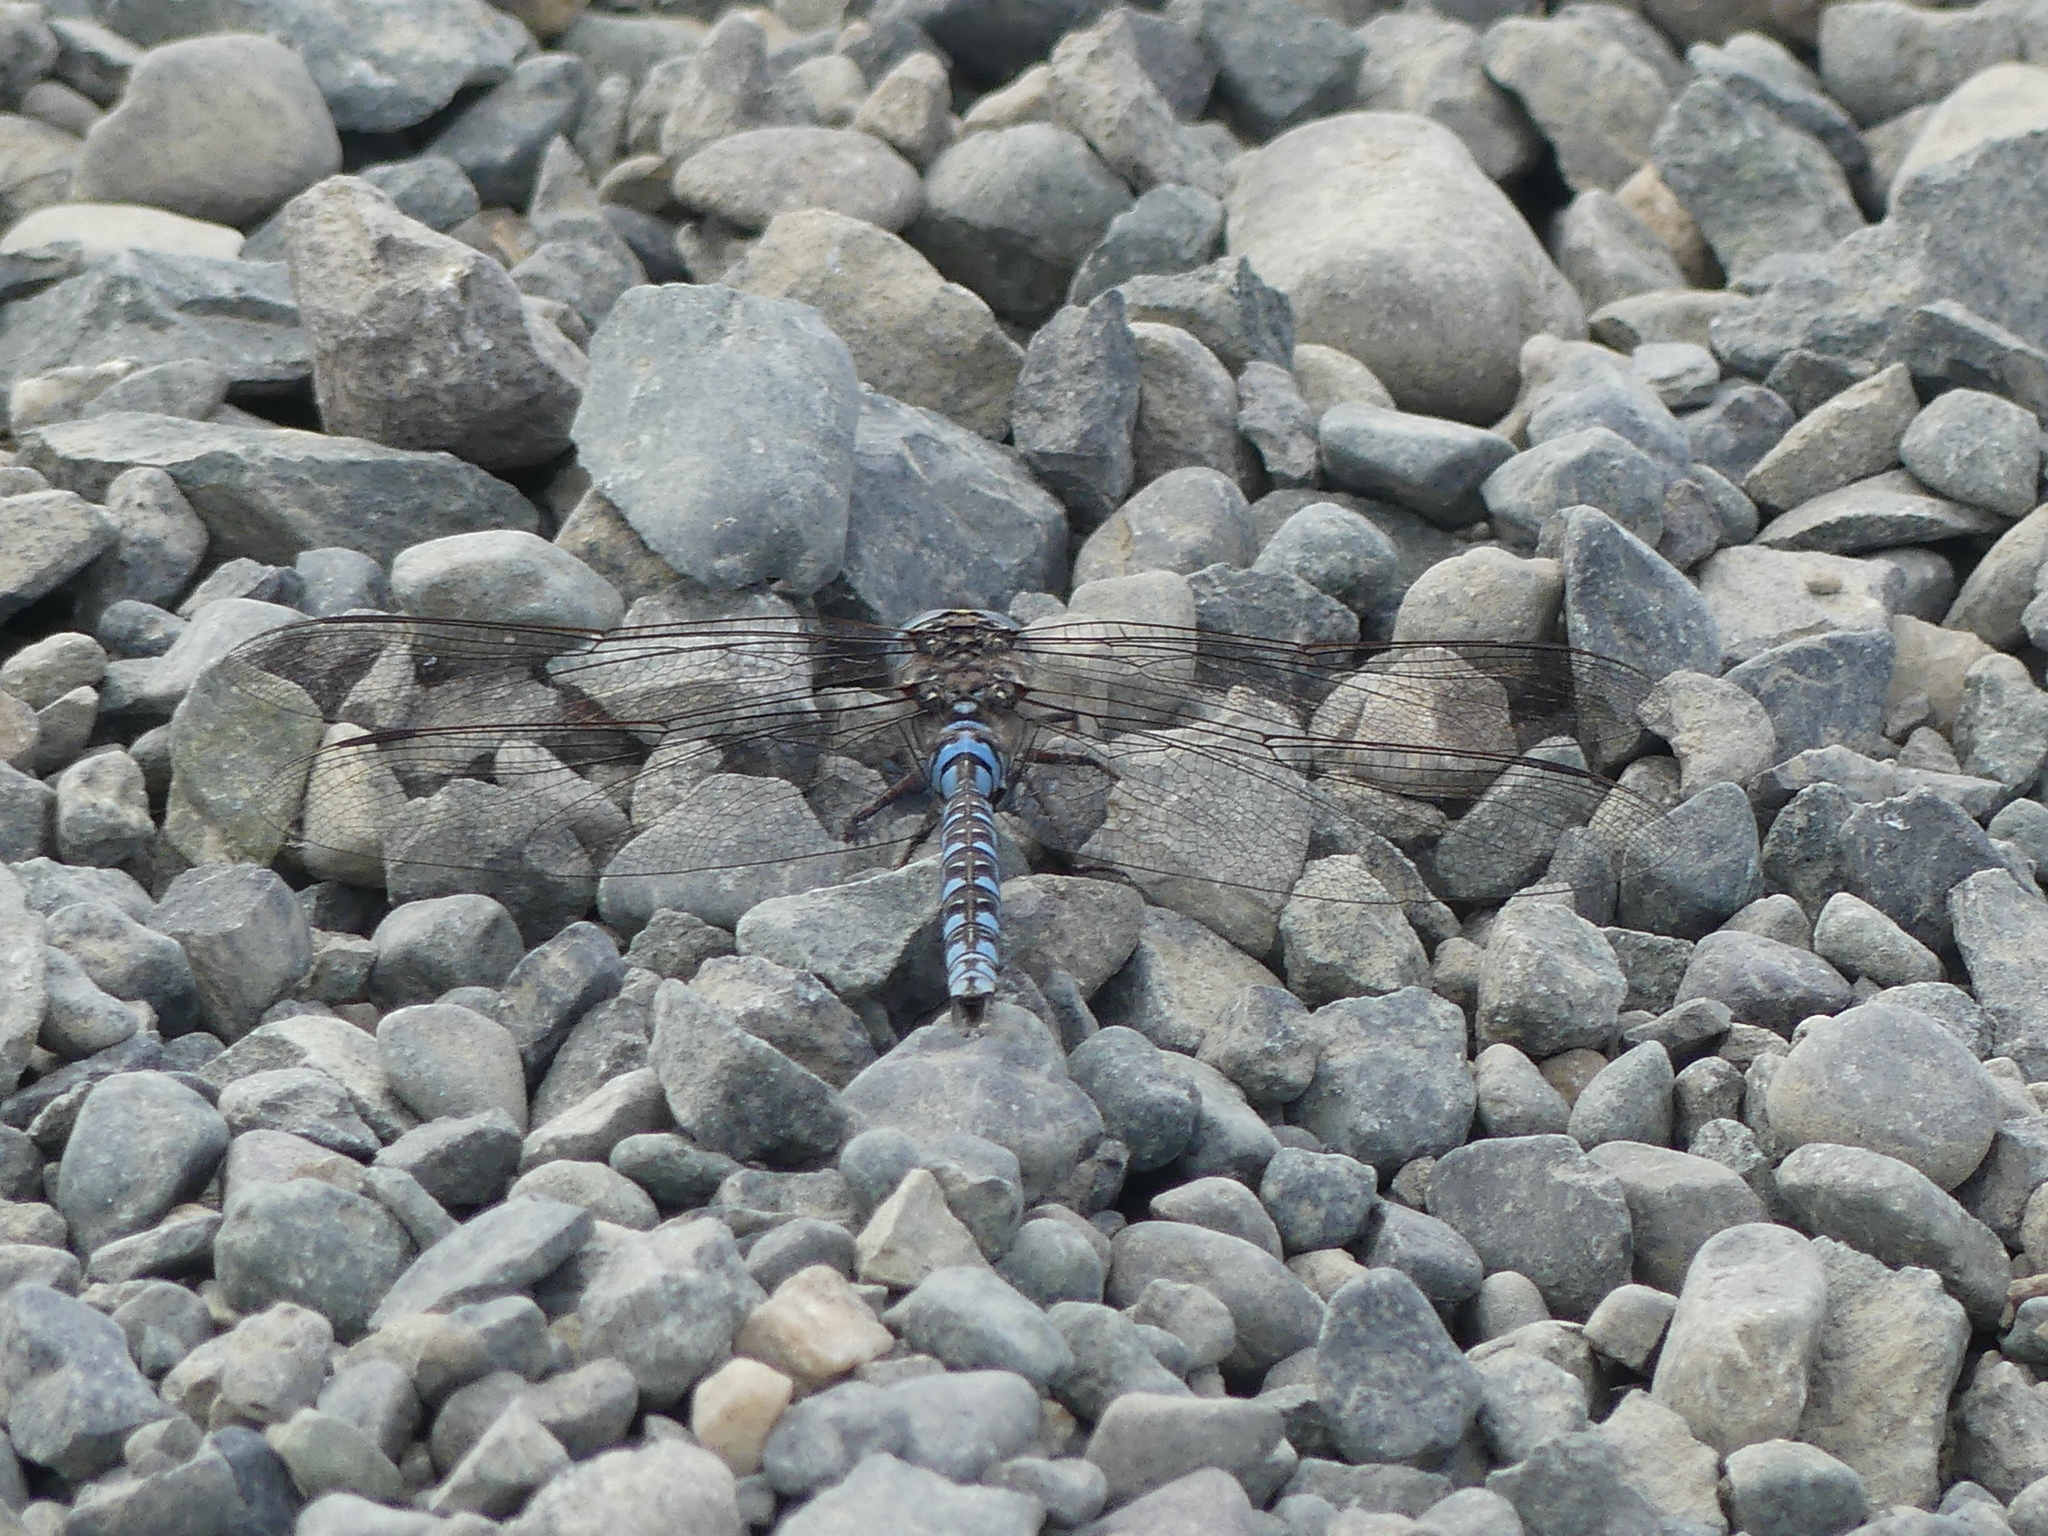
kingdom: Animalia
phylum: Arthropoda
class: Insecta
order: Odonata
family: Aeshnidae
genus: Aeshna
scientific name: Aeshna sitchensis
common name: Zigzag darner
